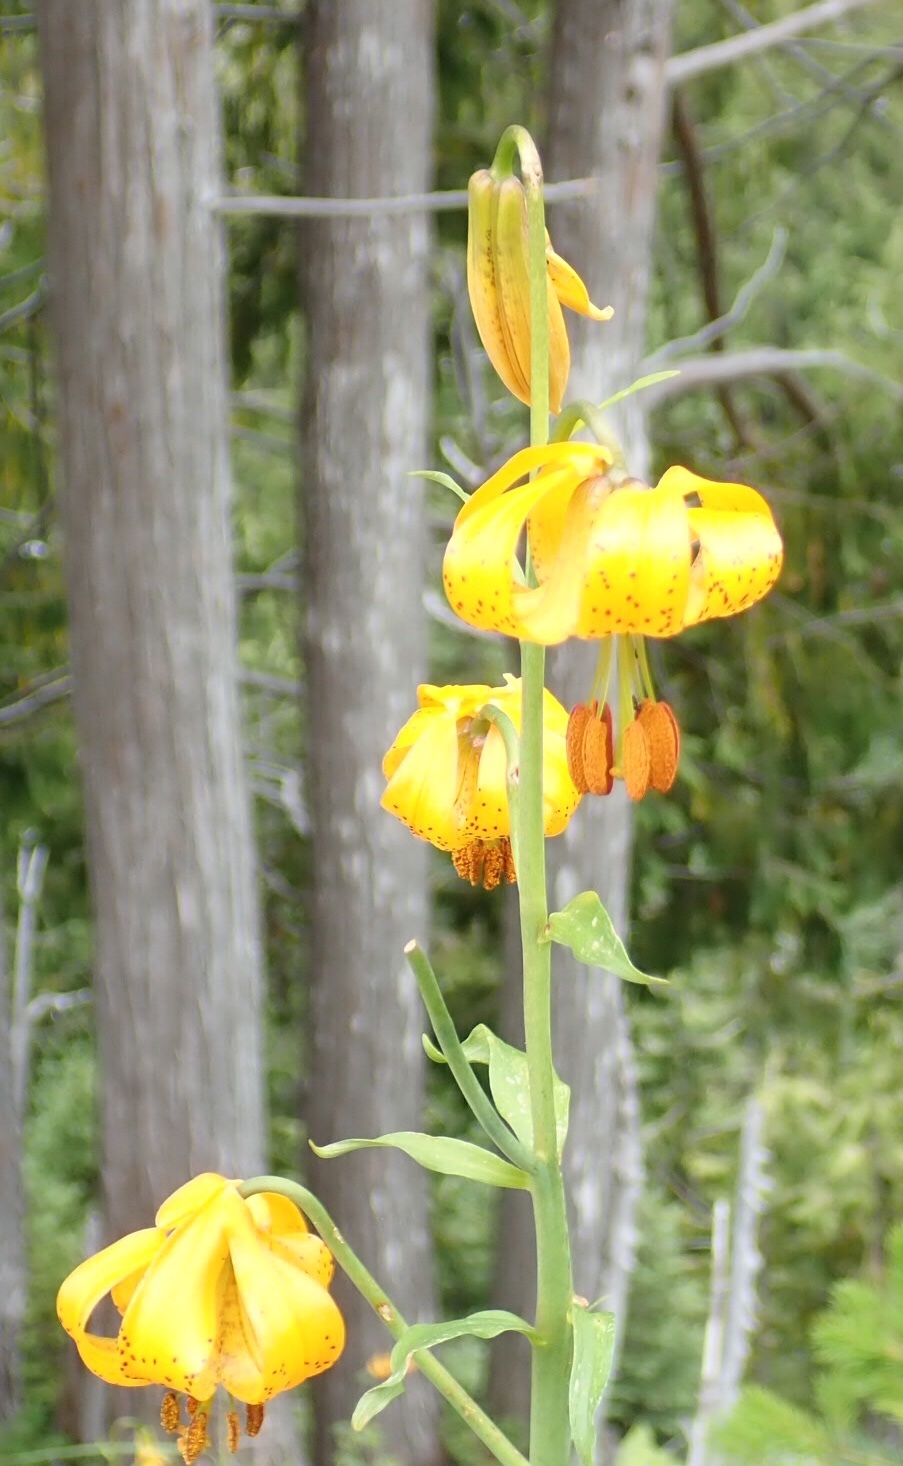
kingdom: Plantae
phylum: Tracheophyta
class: Liliopsida
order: Liliales
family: Liliaceae
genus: Lilium
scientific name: Lilium columbianum
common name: Columbia lily
